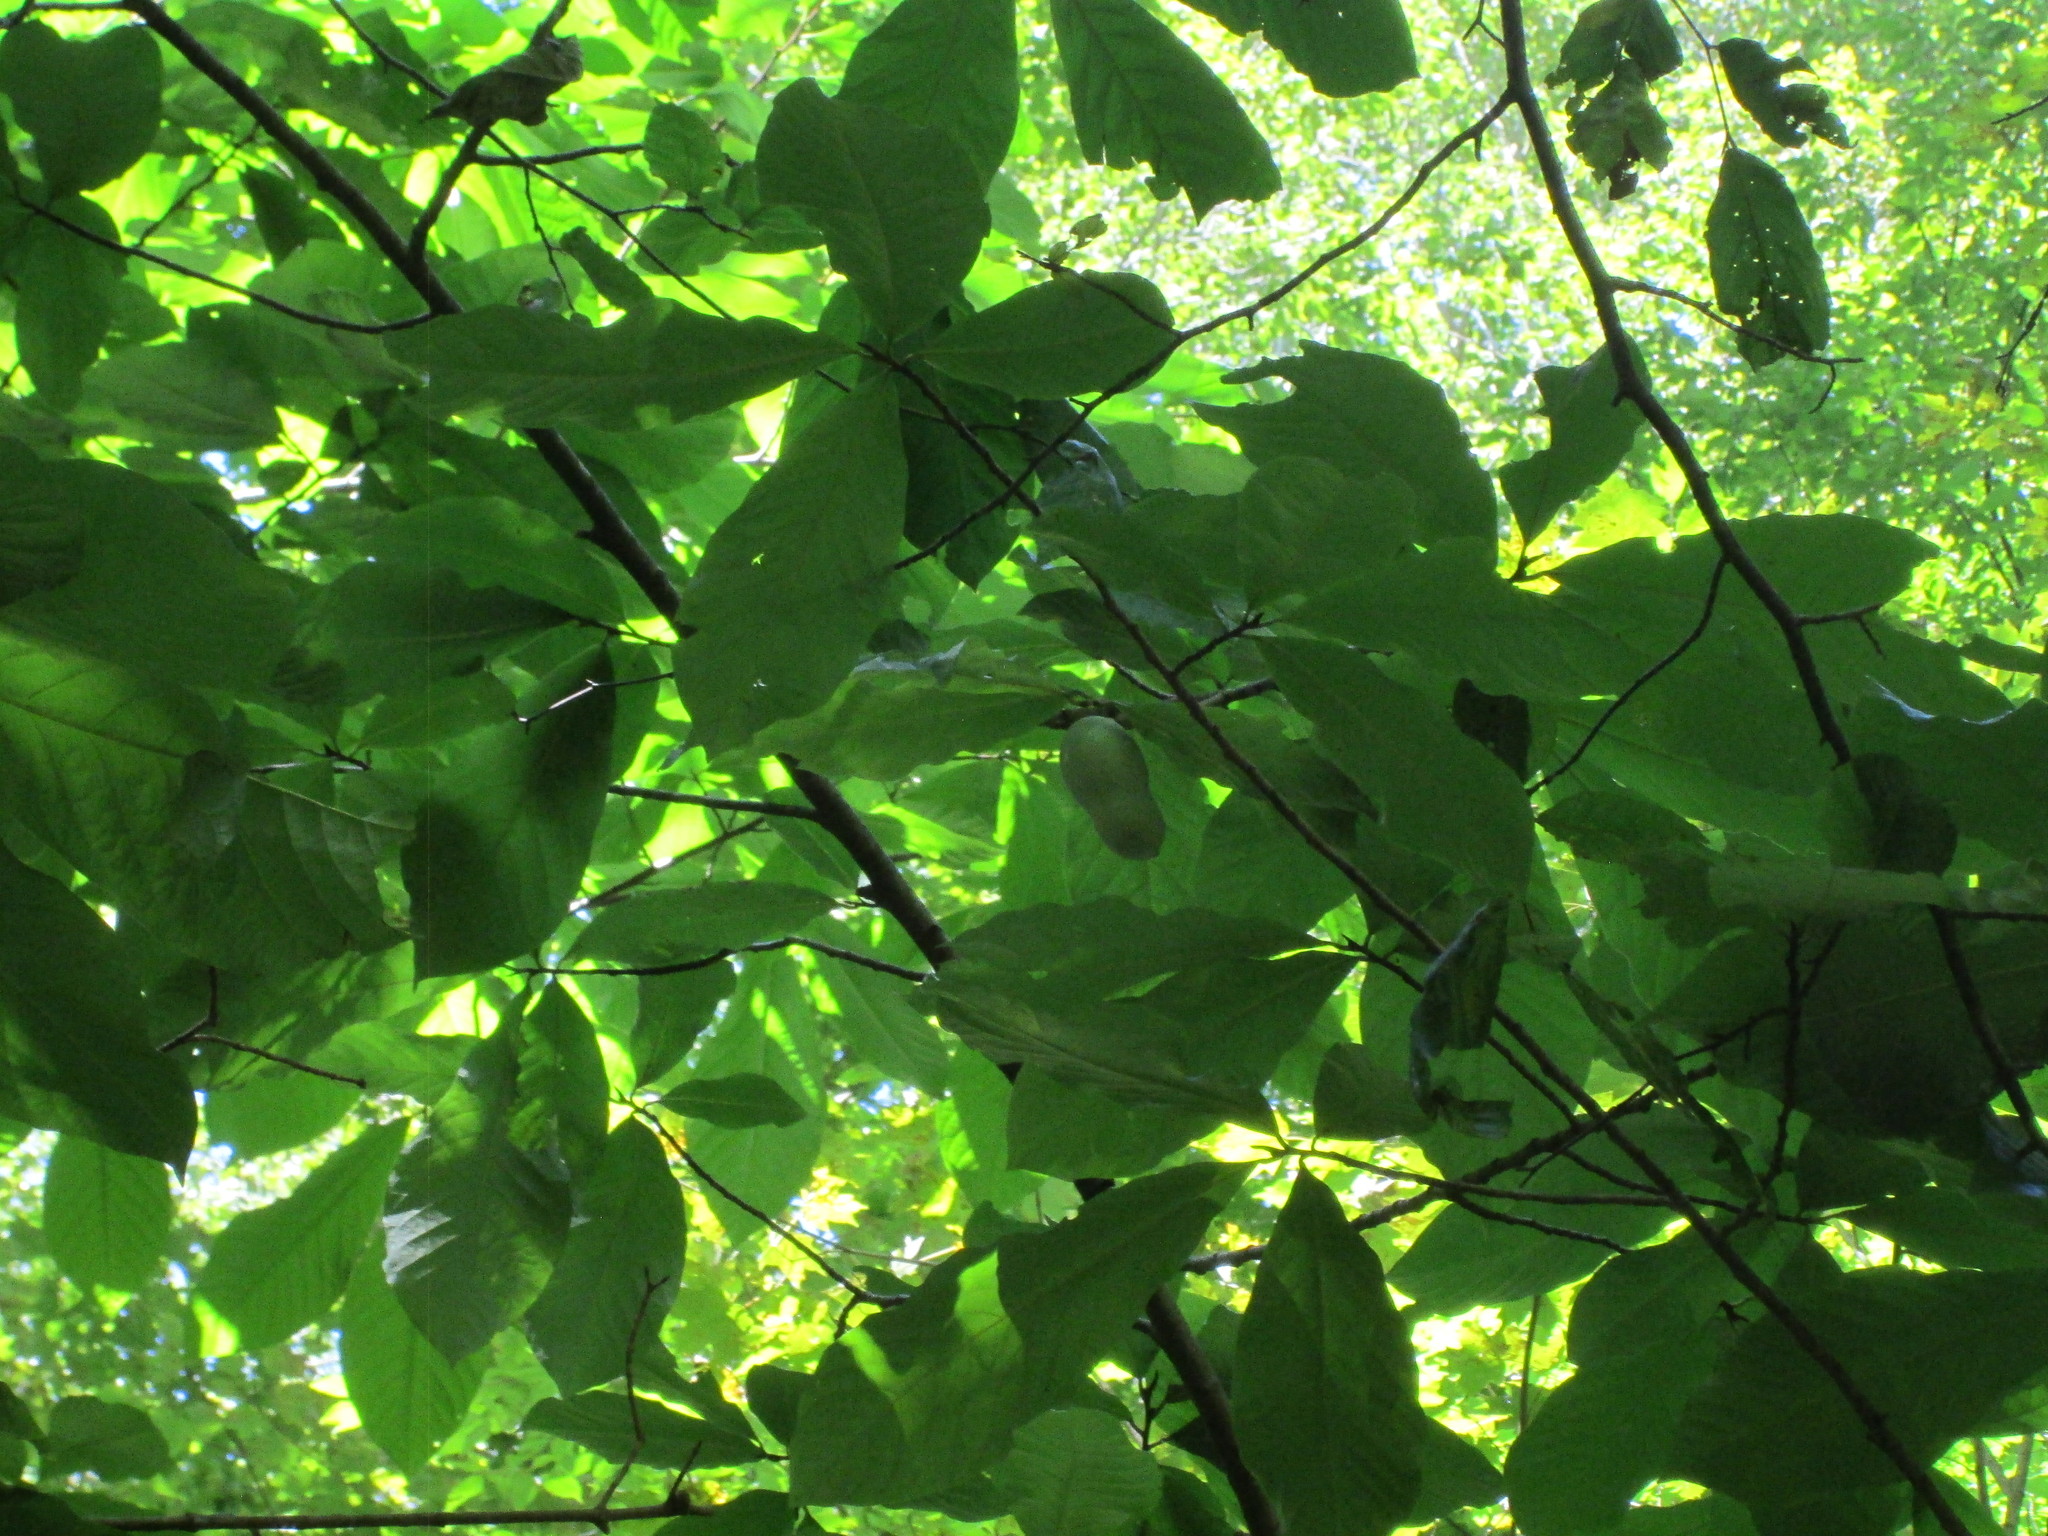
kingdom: Plantae
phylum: Tracheophyta
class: Magnoliopsida
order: Magnoliales
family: Annonaceae
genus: Asimina
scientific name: Asimina triloba
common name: Dog-banana
